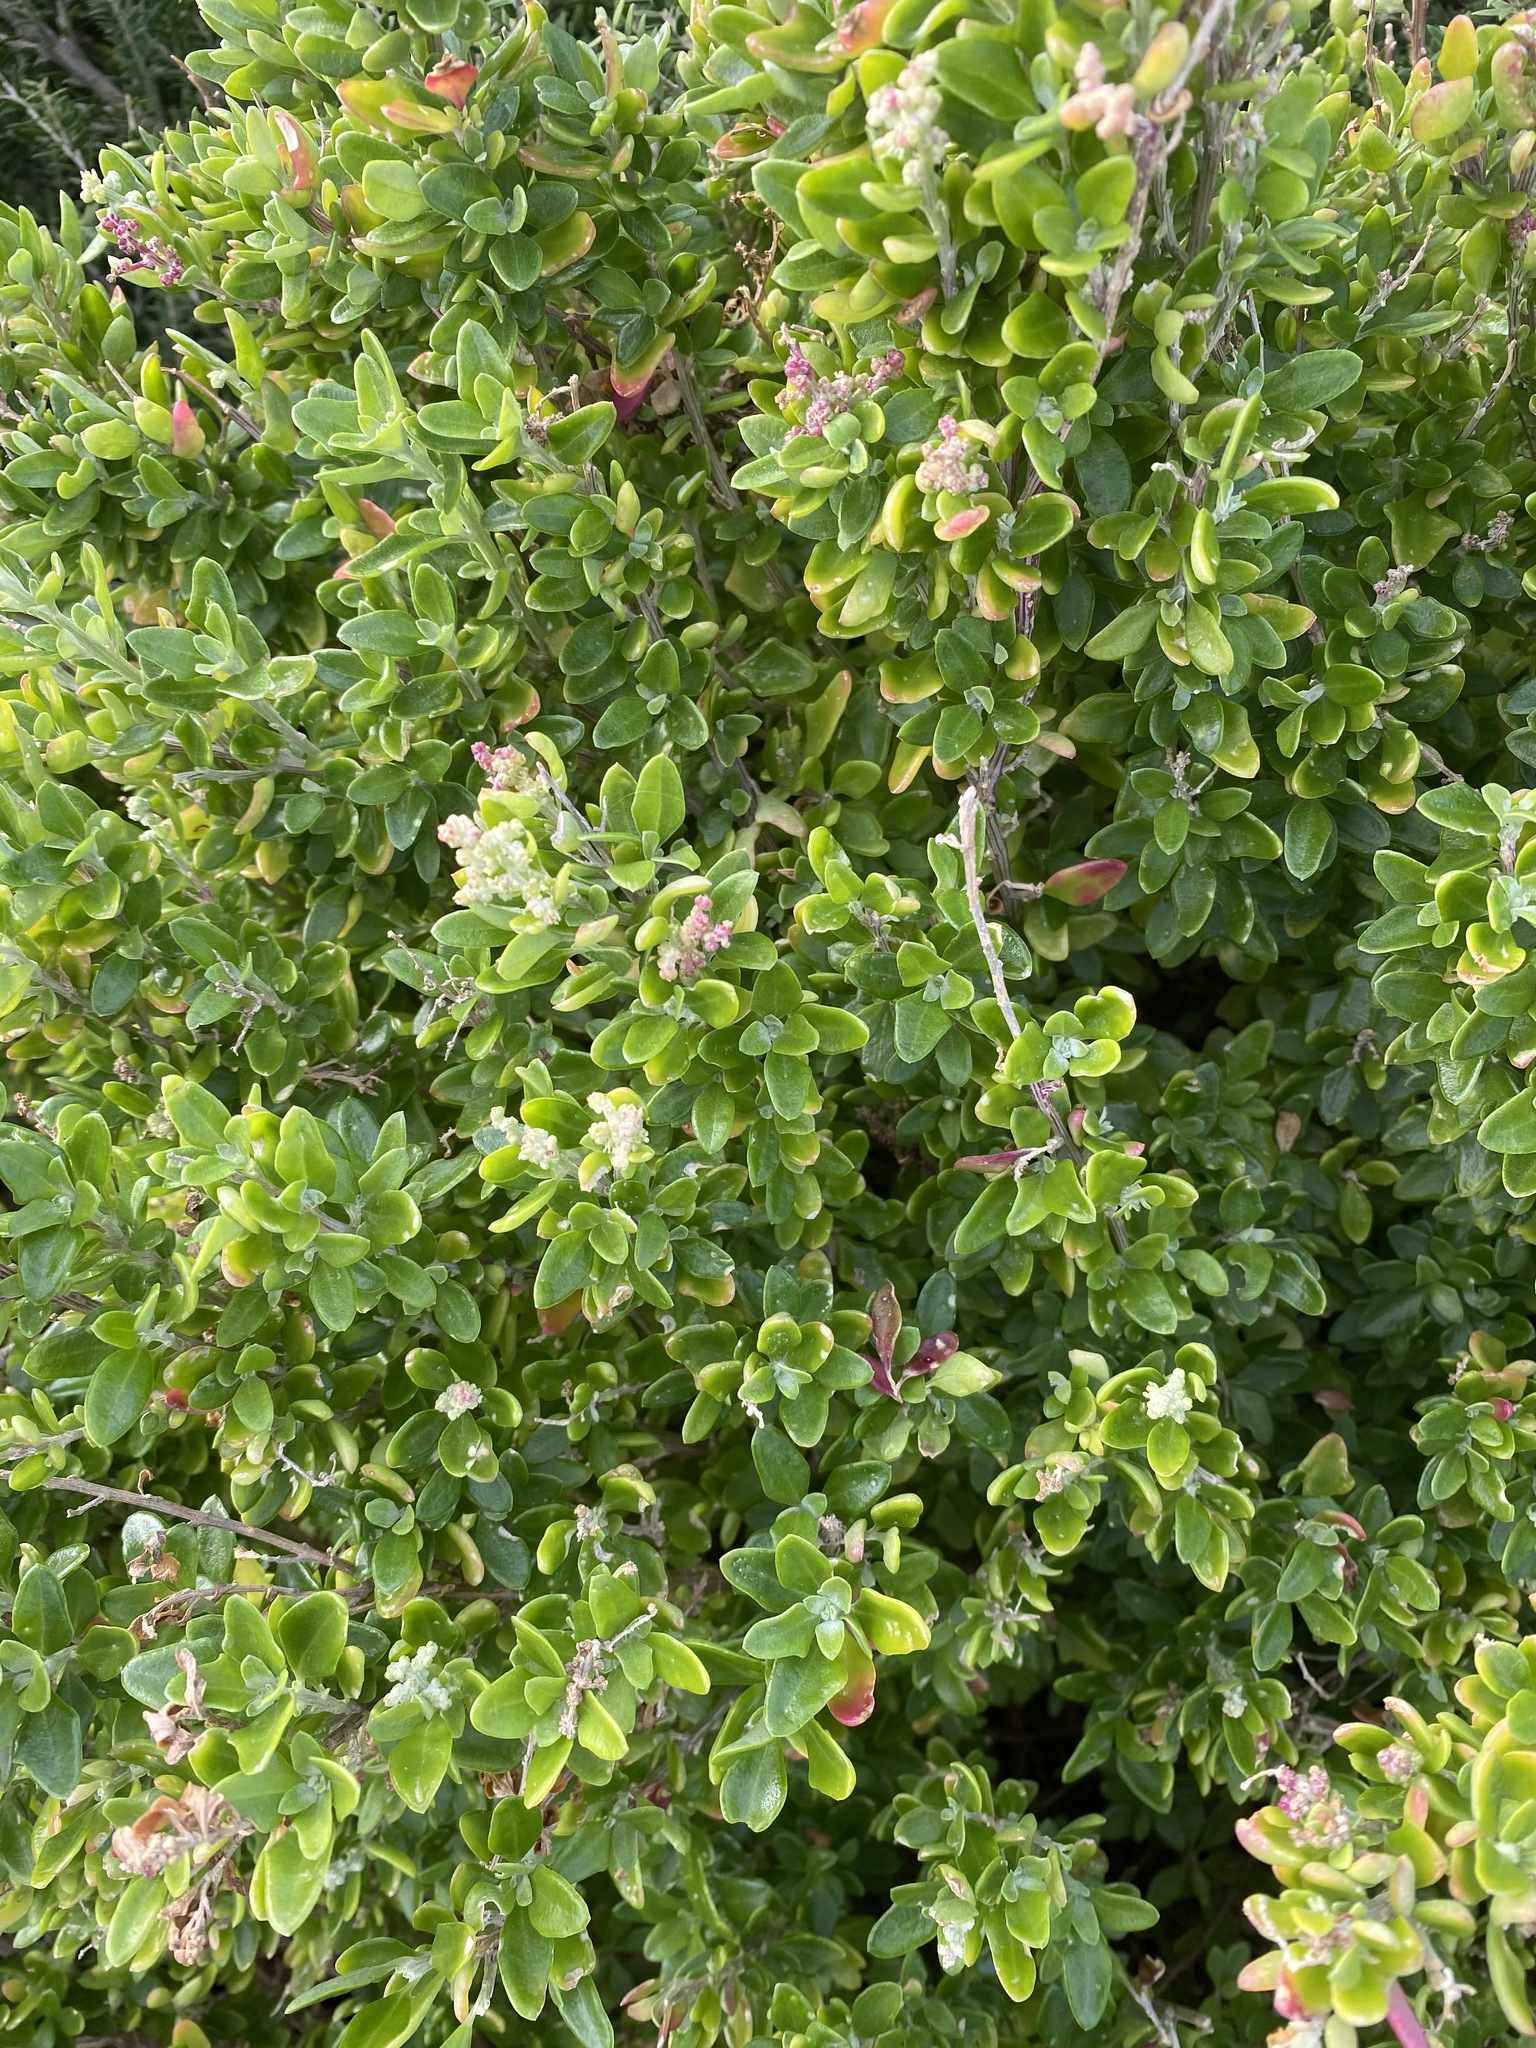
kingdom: Plantae
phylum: Tracheophyta
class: Magnoliopsida
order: Caryophyllales
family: Amaranthaceae
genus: Chenopodium
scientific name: Chenopodium candolleanum
